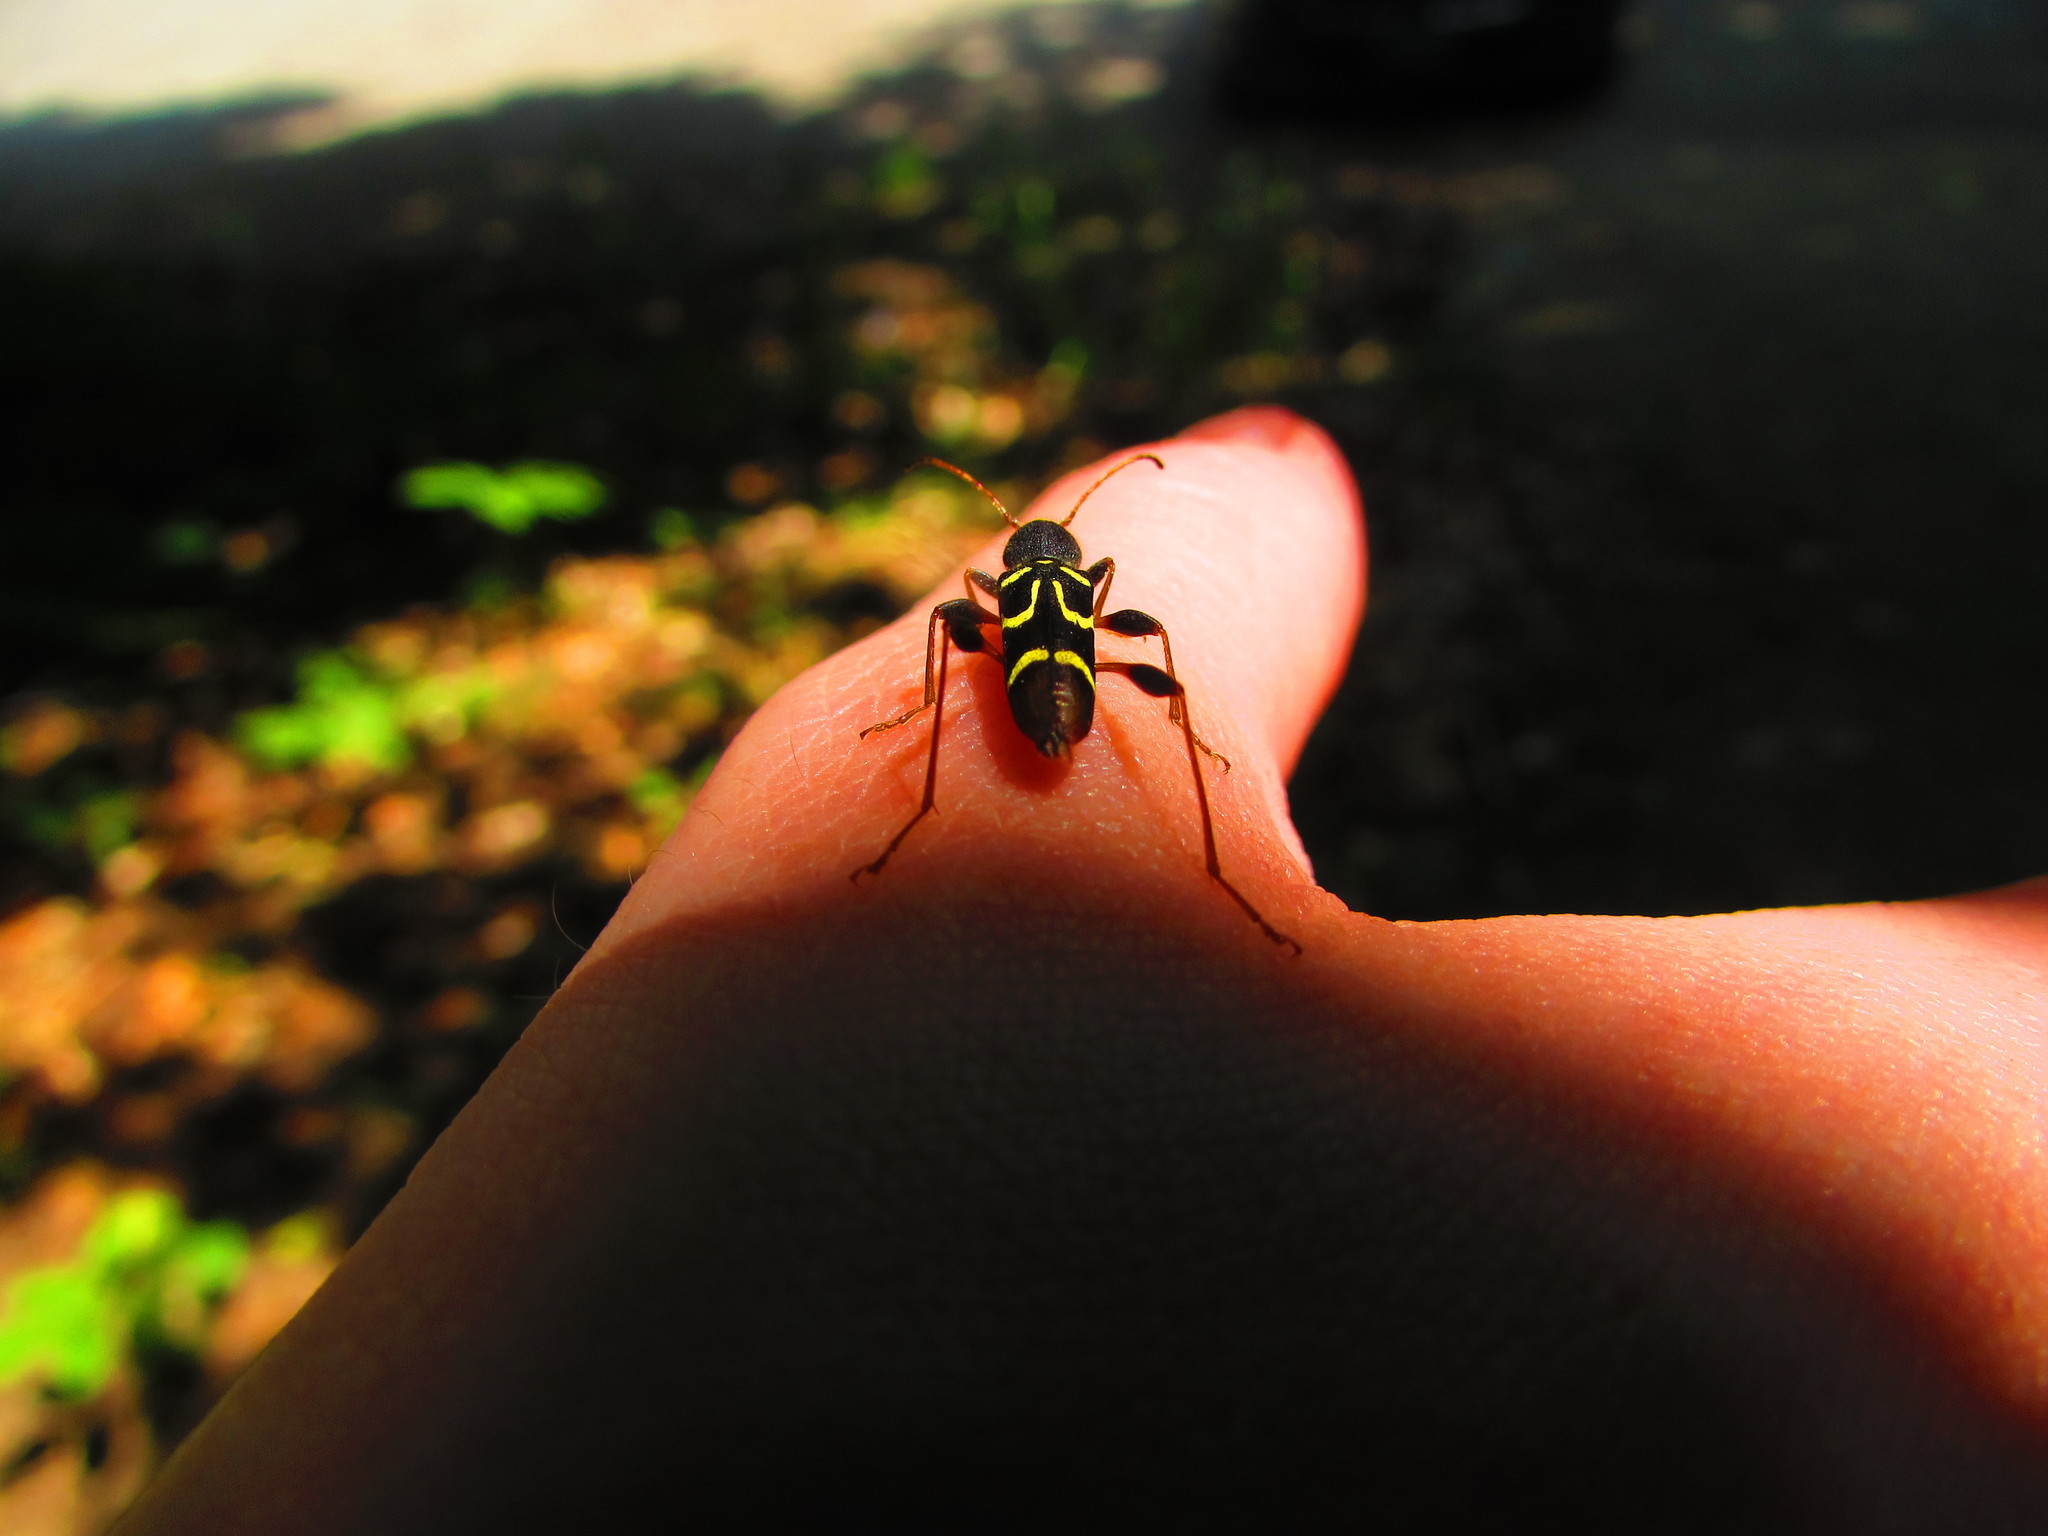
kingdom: Animalia
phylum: Arthropoda
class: Insecta
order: Coleoptera
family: Cerambycidae
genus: Clytus
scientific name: Clytus ruricola
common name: Round-necked longhorn beetle
